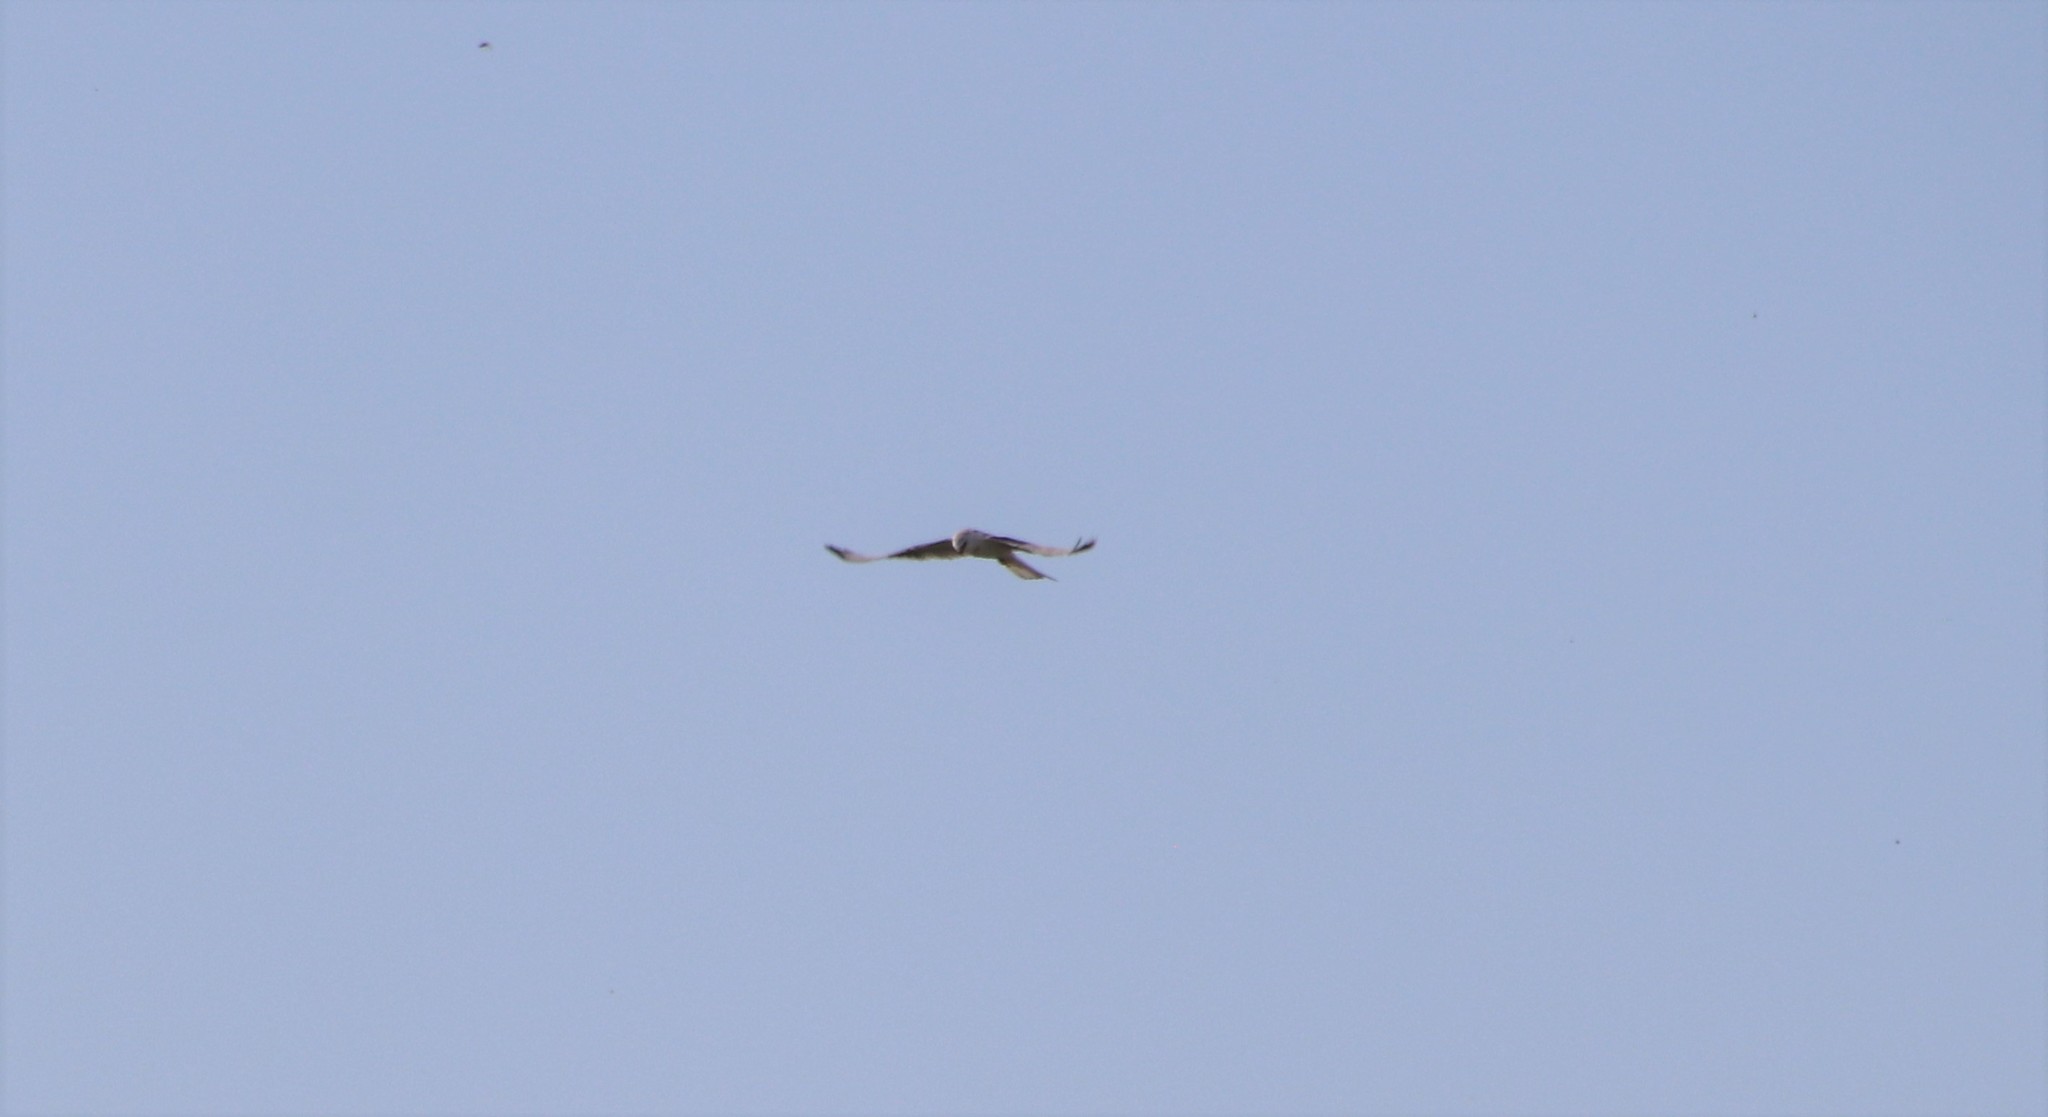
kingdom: Animalia
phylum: Chordata
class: Aves
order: Accipitriformes
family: Accipitridae
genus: Elanus
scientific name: Elanus leucurus
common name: White-tailed kite
